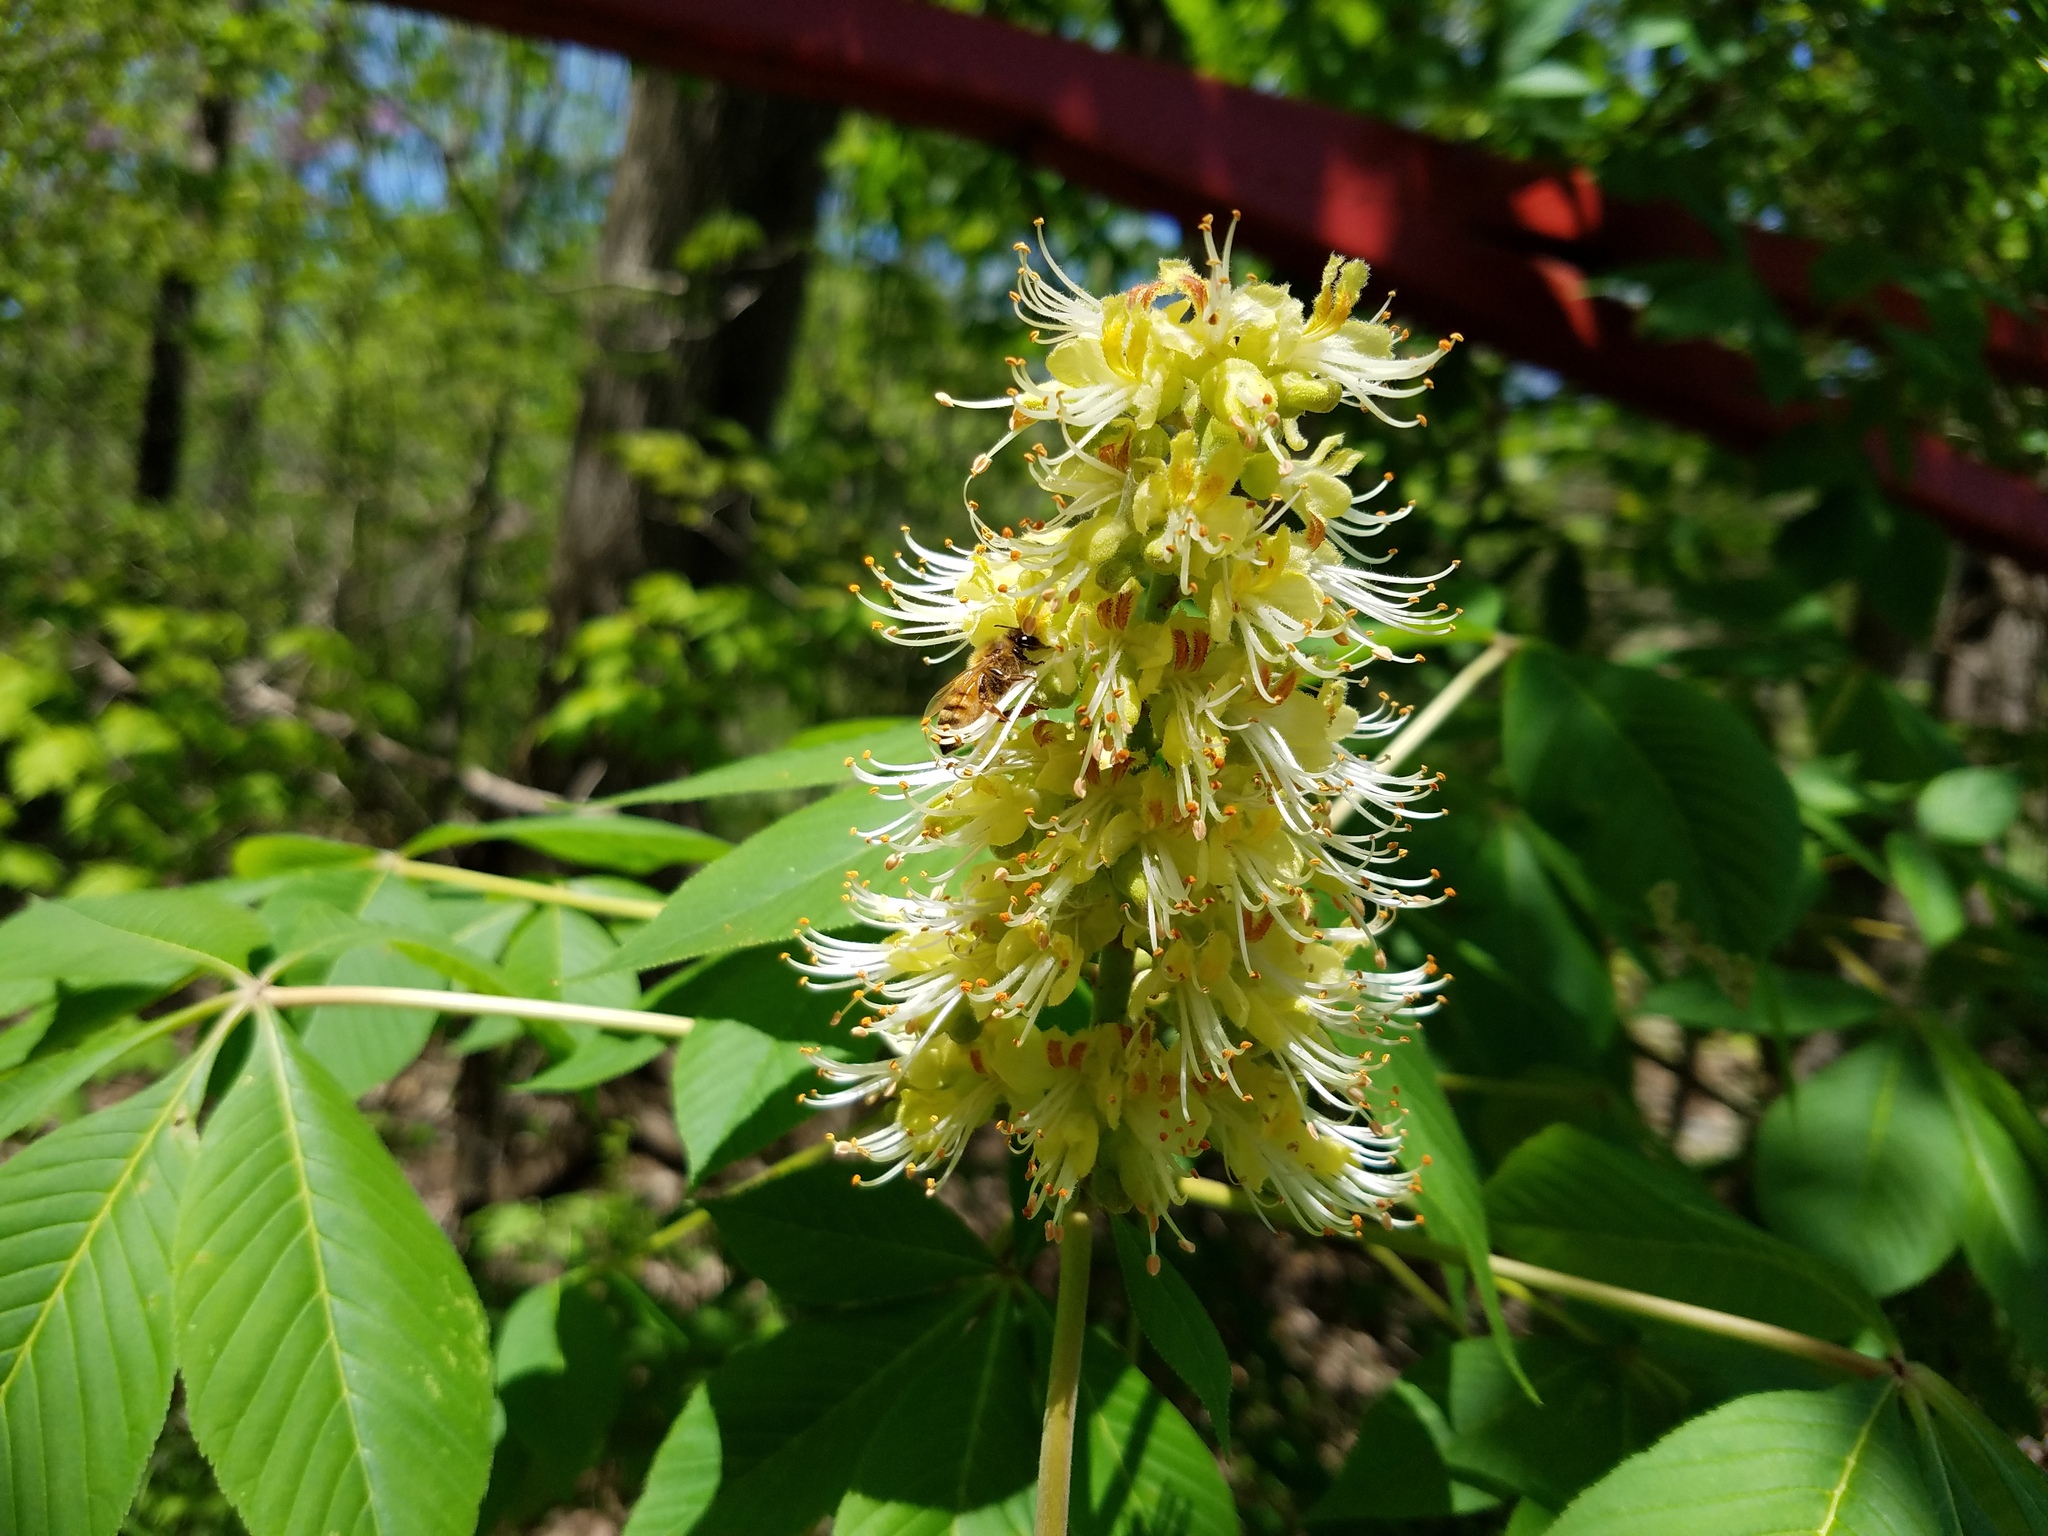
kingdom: Animalia
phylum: Arthropoda
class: Insecta
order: Hymenoptera
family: Apidae
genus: Apis
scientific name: Apis mellifera
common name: Honey bee
